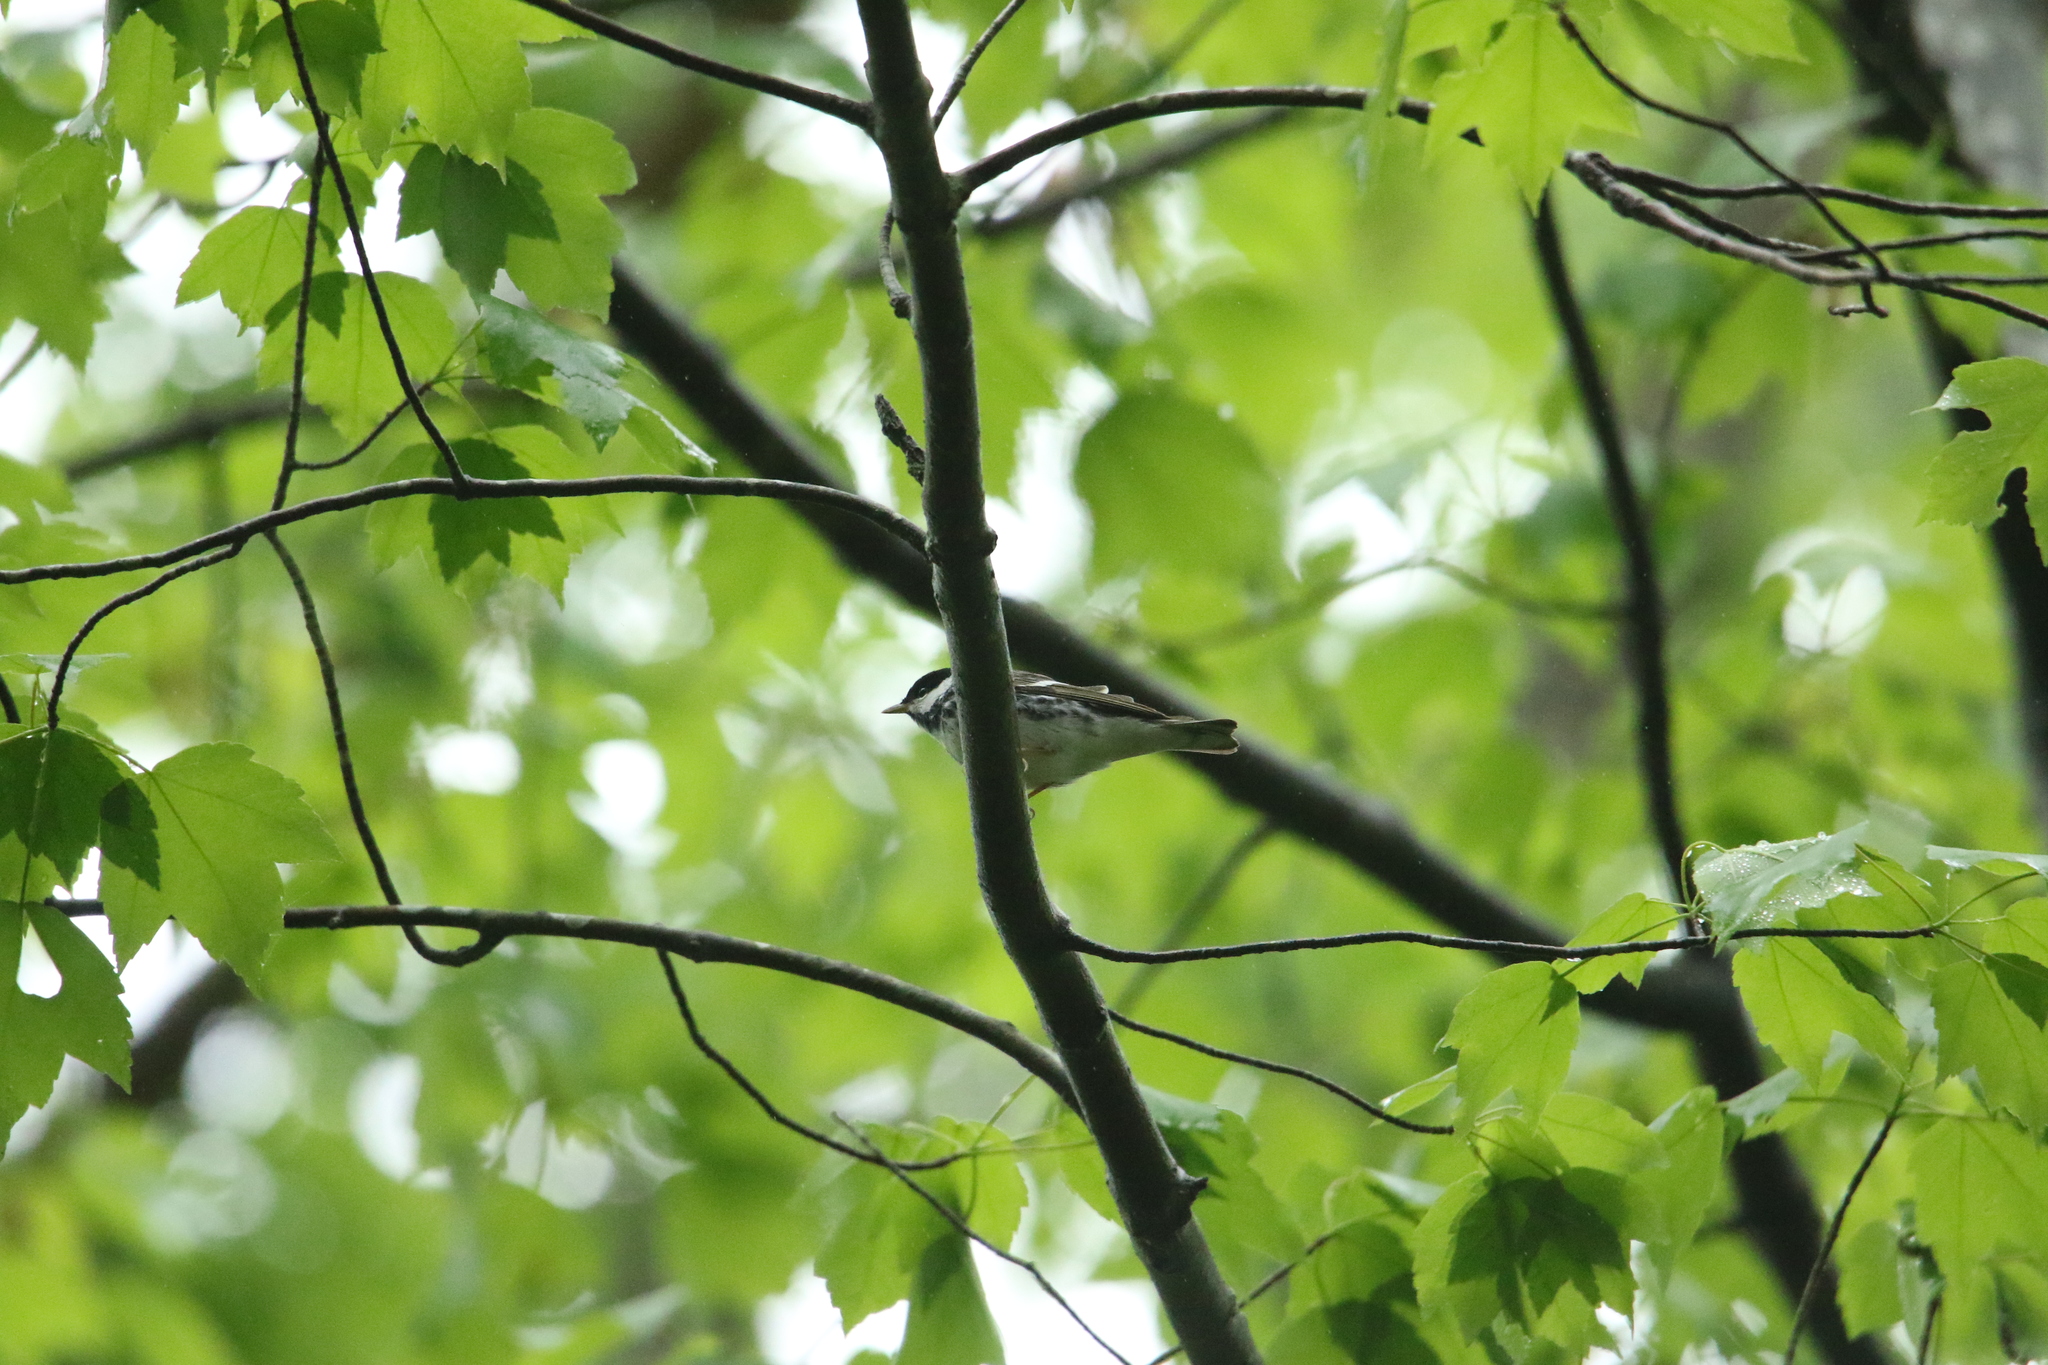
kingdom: Animalia
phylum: Chordata
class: Aves
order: Passeriformes
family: Parulidae
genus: Setophaga
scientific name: Setophaga striata
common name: Blackpoll warbler
